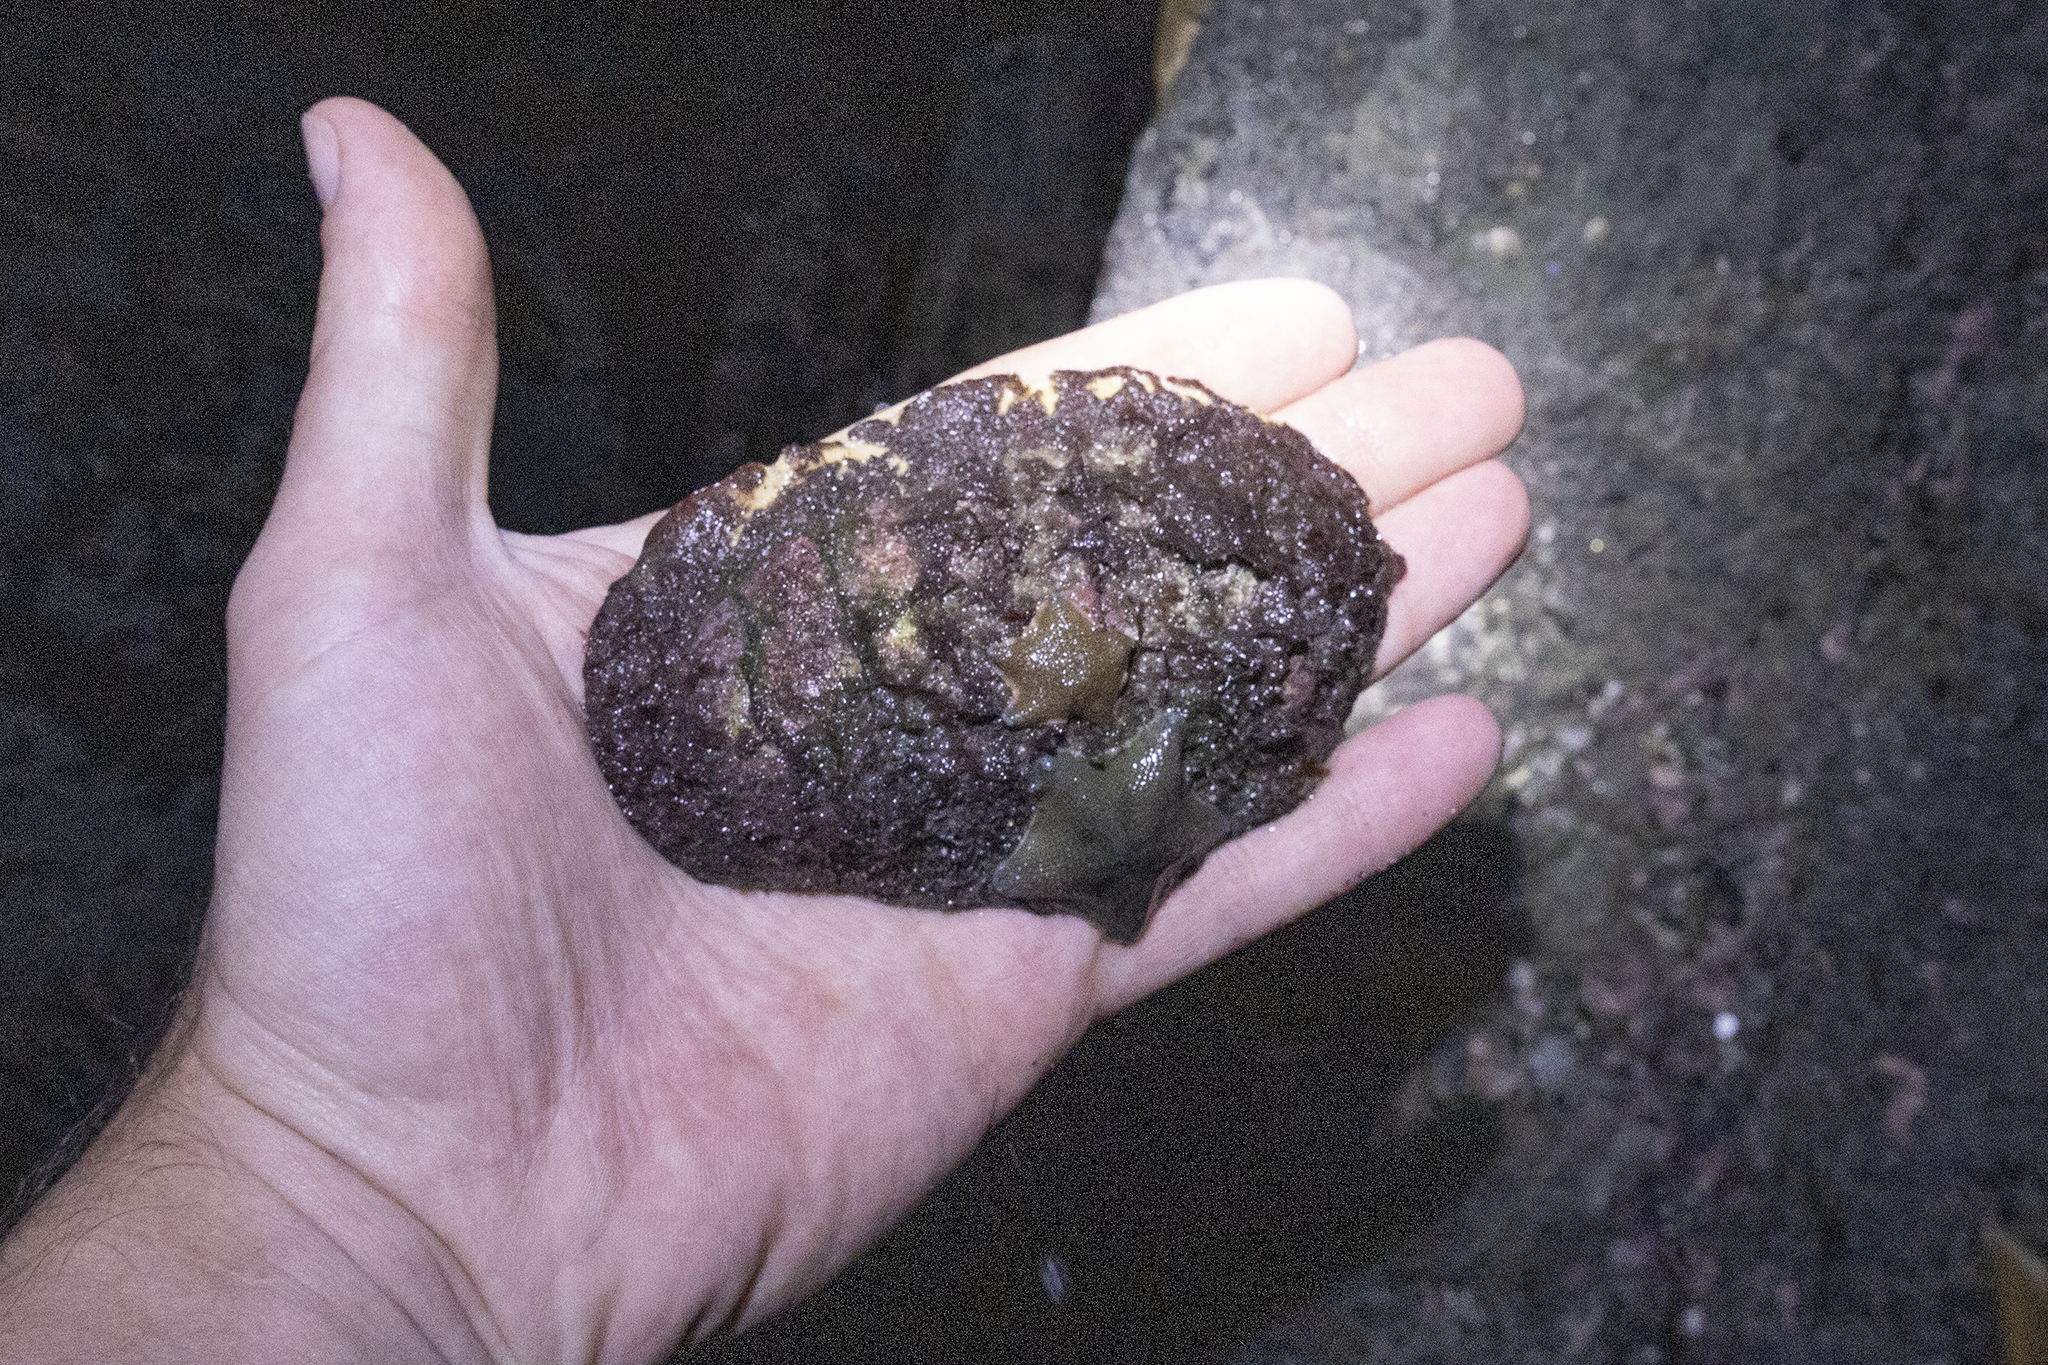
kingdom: Animalia
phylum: Mollusca
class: Polyplacophora
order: Callochitonida
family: Callochitonidae
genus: Eudoxochiton
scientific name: Eudoxochiton nobilis
